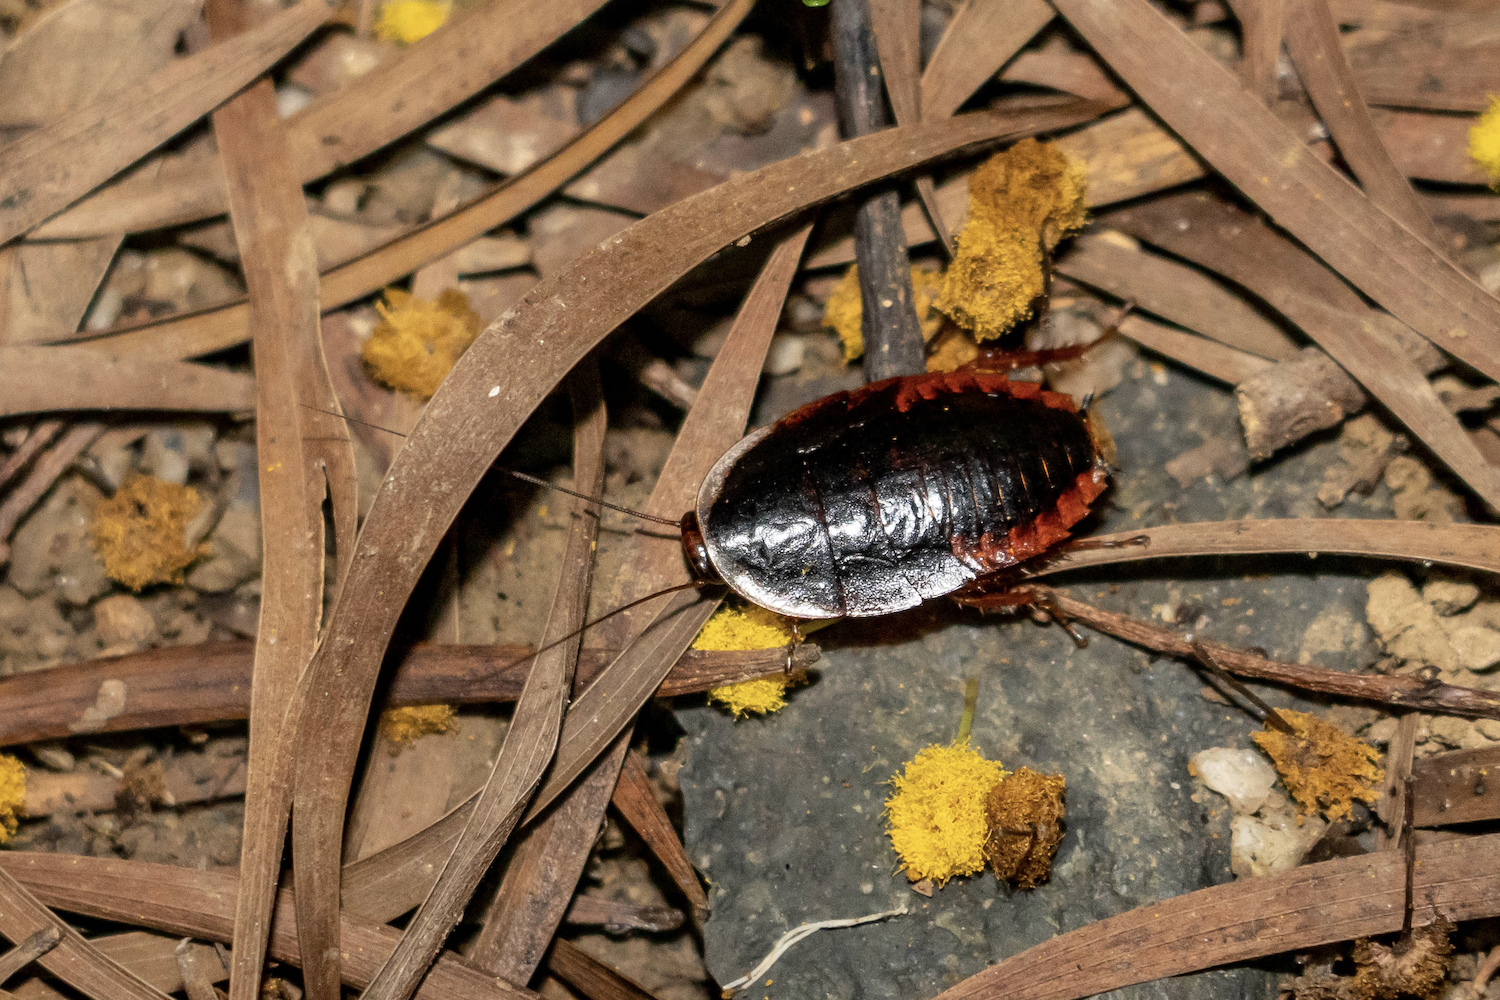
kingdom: Animalia
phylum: Arthropoda
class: Insecta
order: Blattodea
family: Blaberidae
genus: Opisthoplatia
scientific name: Opisthoplatia orientalis
